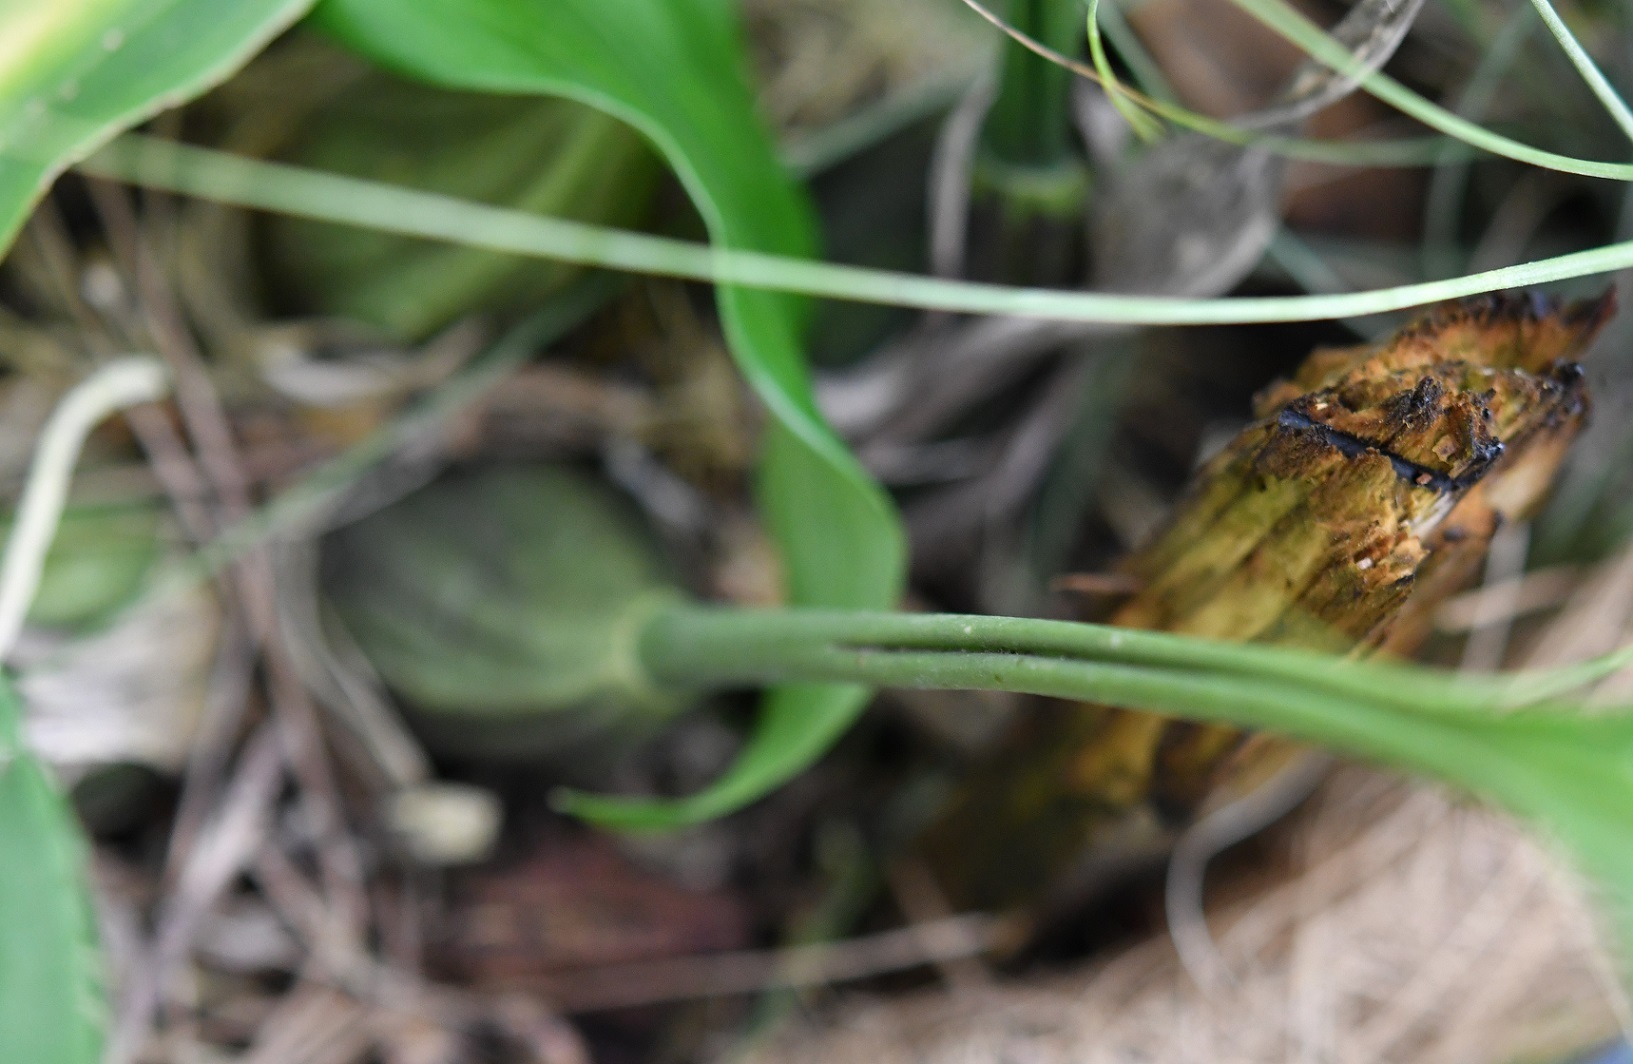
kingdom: Plantae
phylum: Tracheophyta
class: Liliopsida
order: Asparagales
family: Orchidaceae
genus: Stanhopea
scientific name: Stanhopea graveolens
